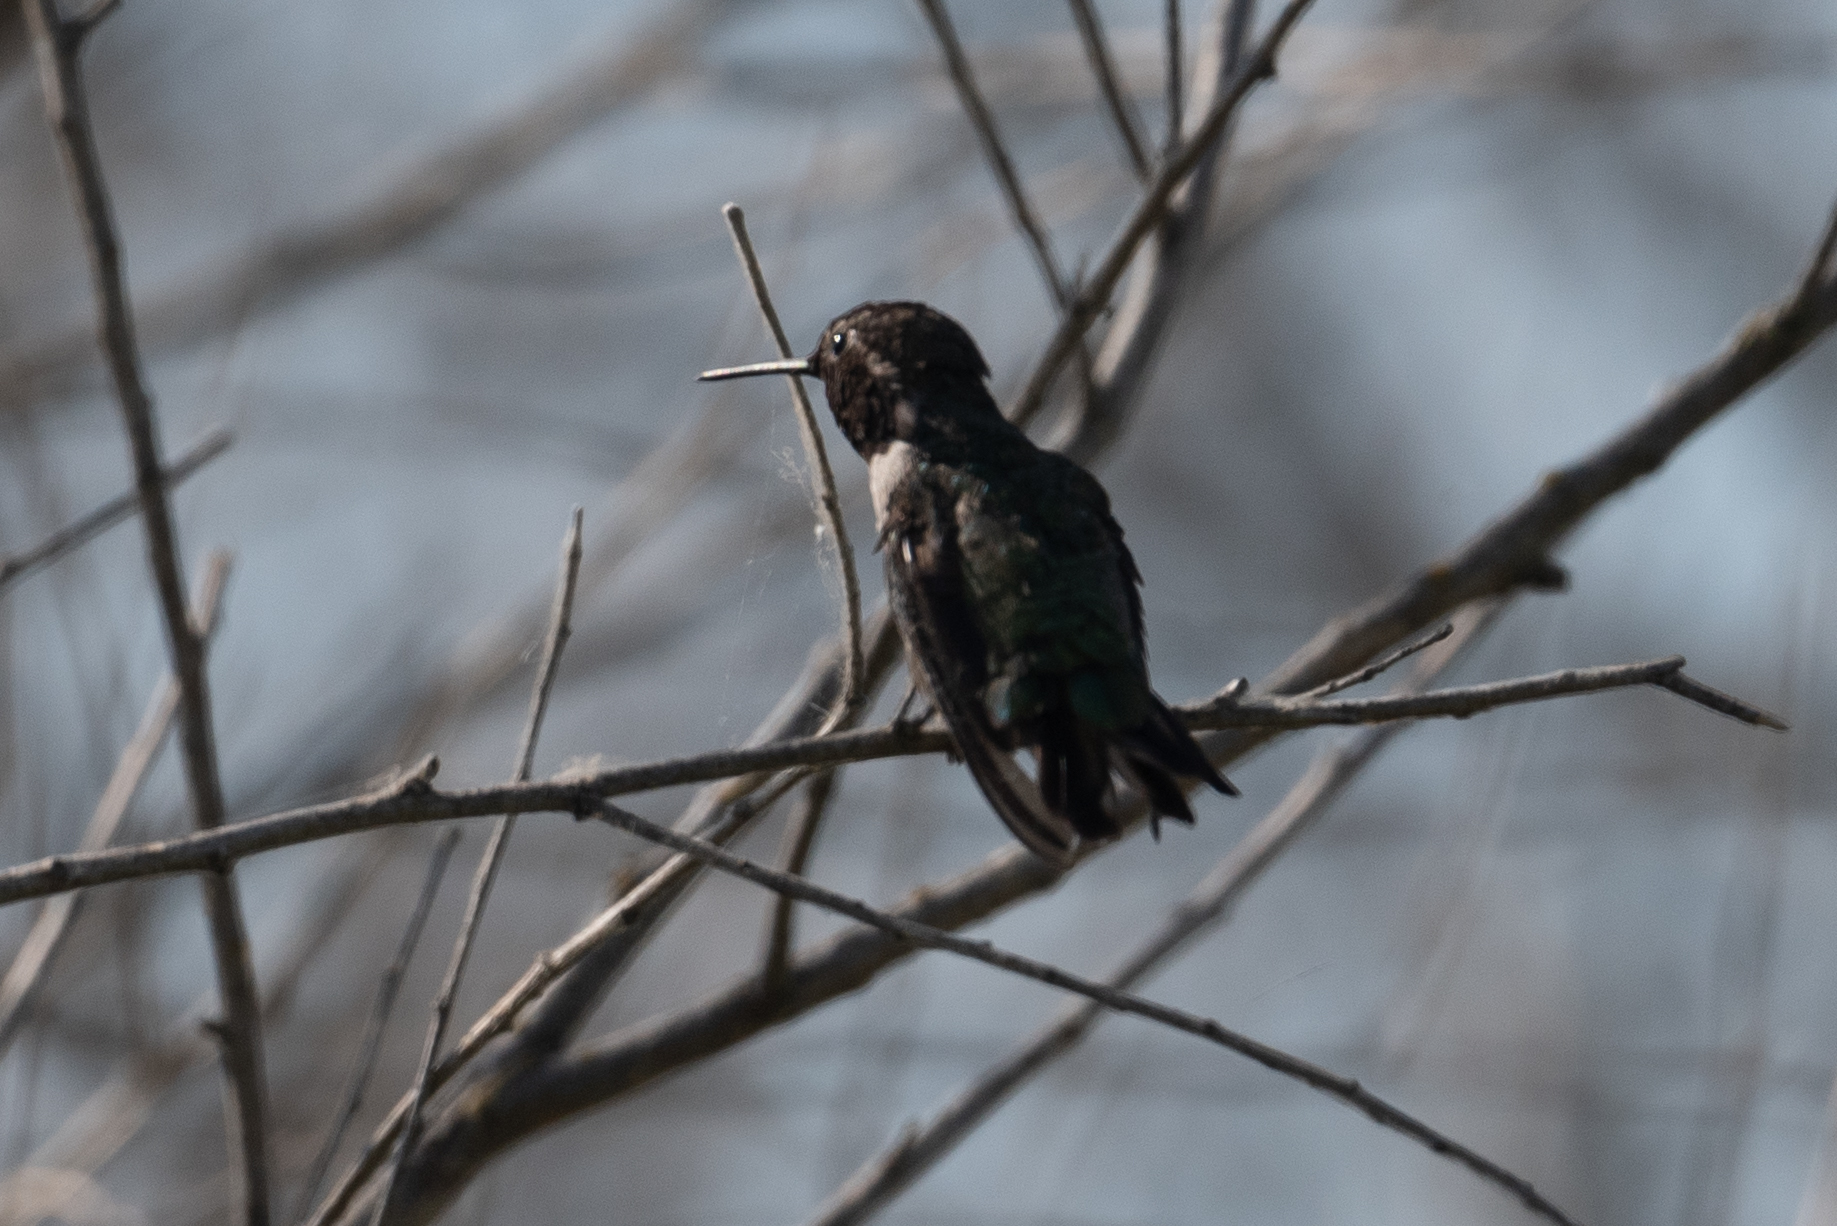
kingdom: Animalia
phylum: Chordata
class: Aves
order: Apodiformes
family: Trochilidae
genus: Calypte
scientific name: Calypte anna
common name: Anna's hummingbird
